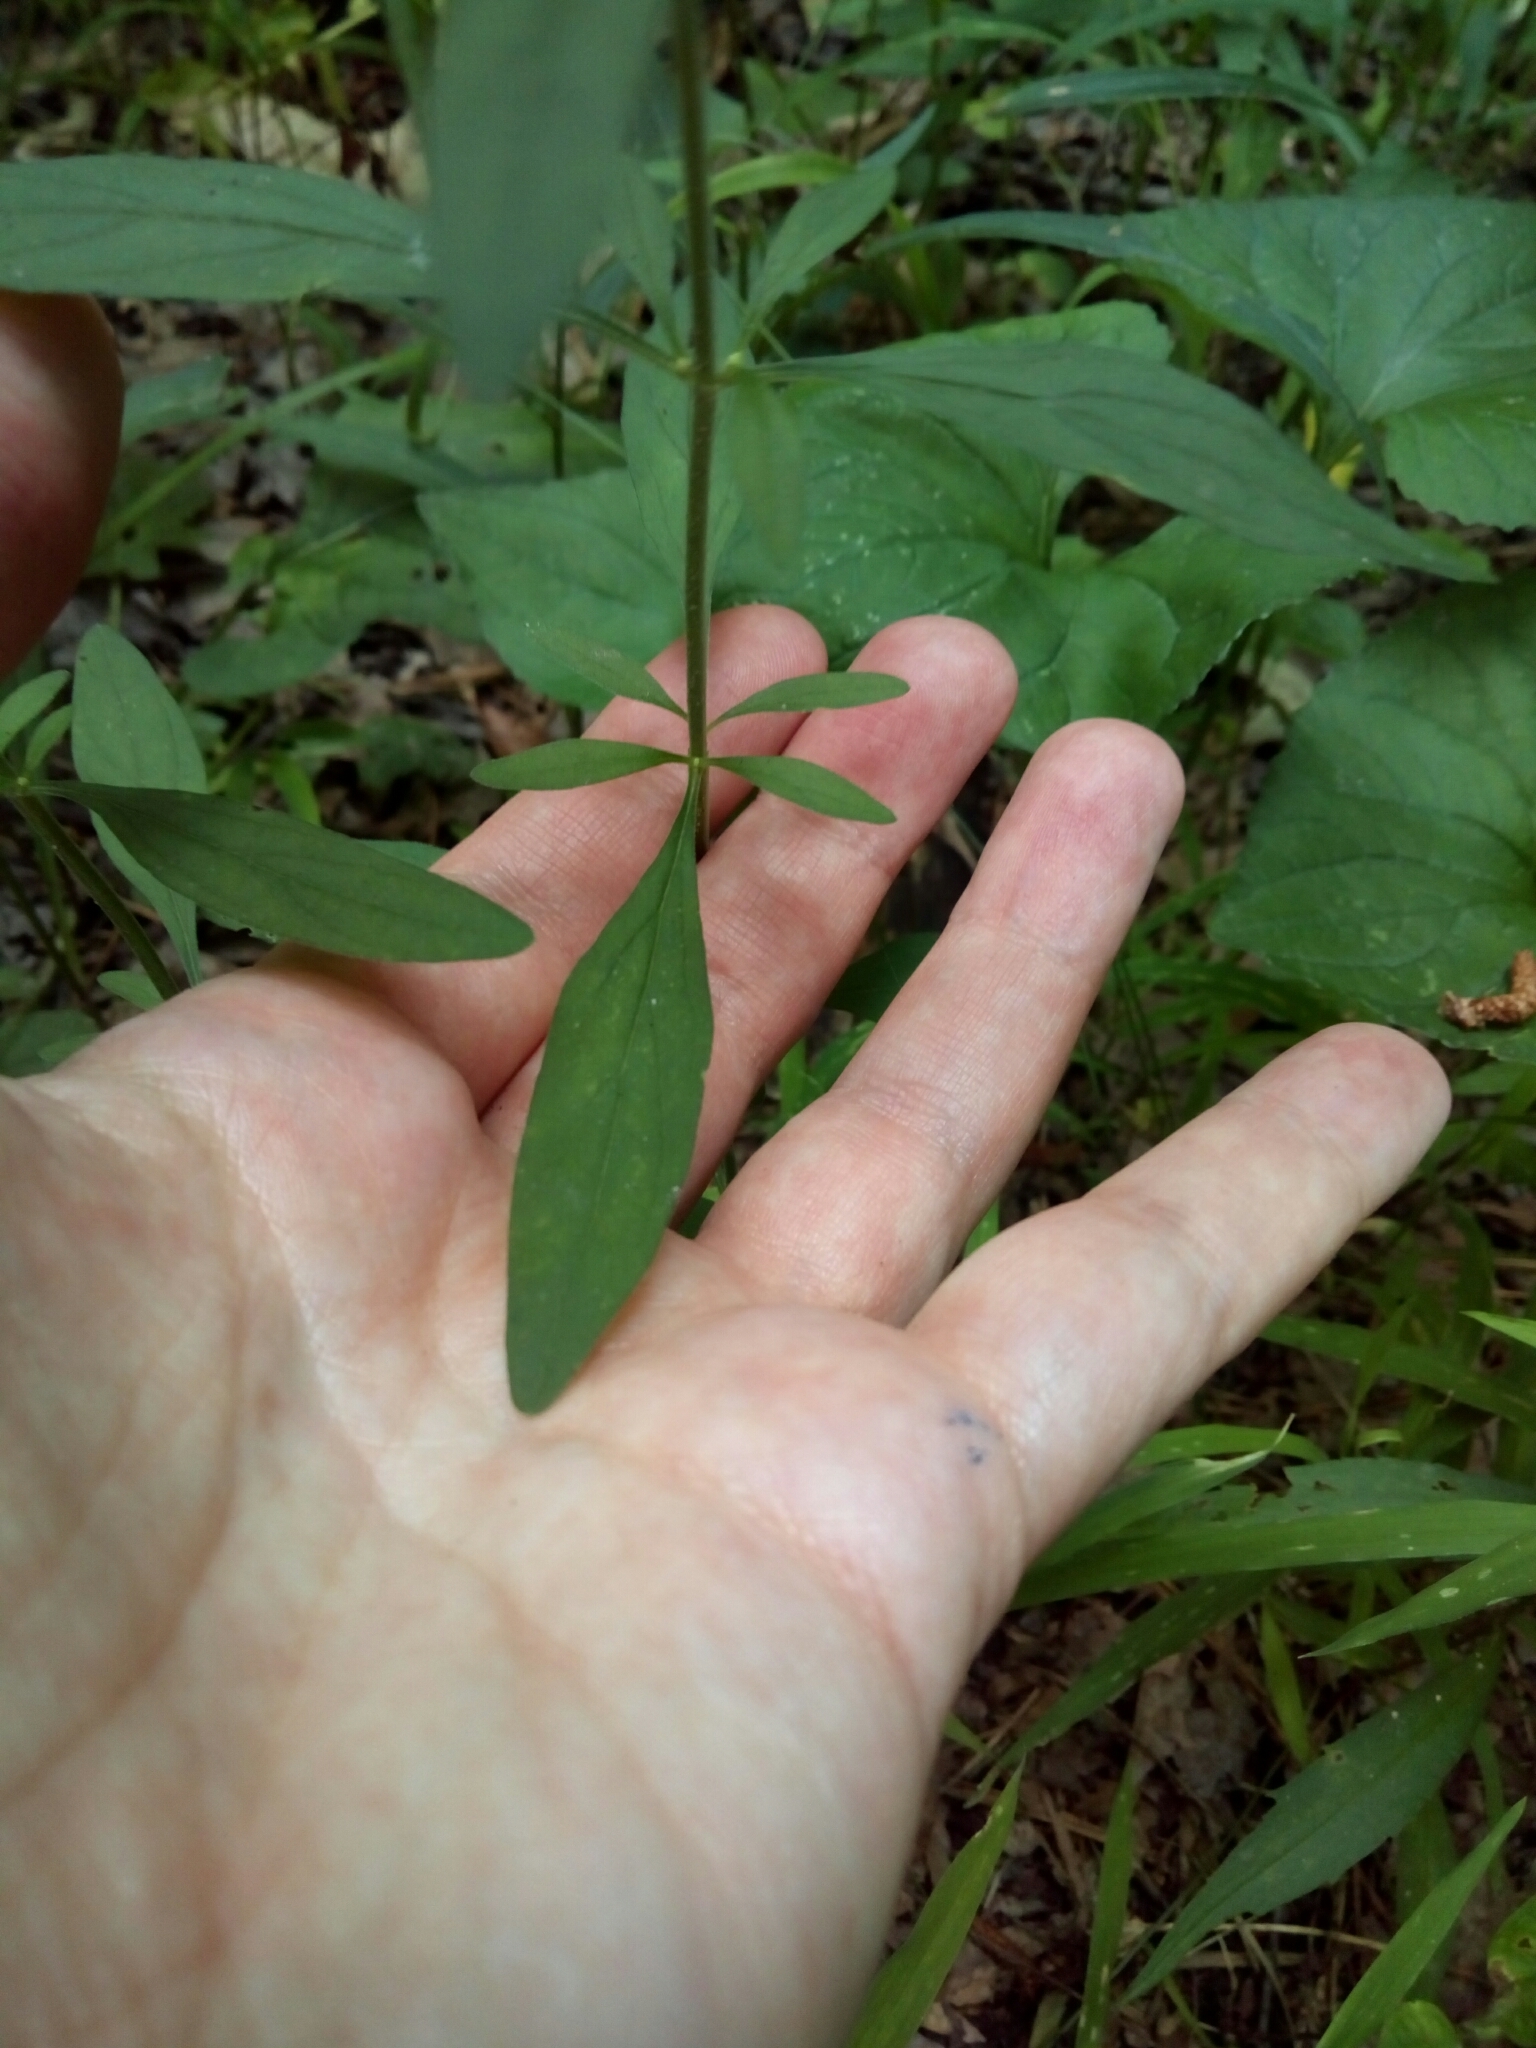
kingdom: Plantae
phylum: Tracheophyta
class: Magnoliopsida
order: Lamiales
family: Lamiaceae
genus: Scutellaria
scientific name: Scutellaria integrifolia
